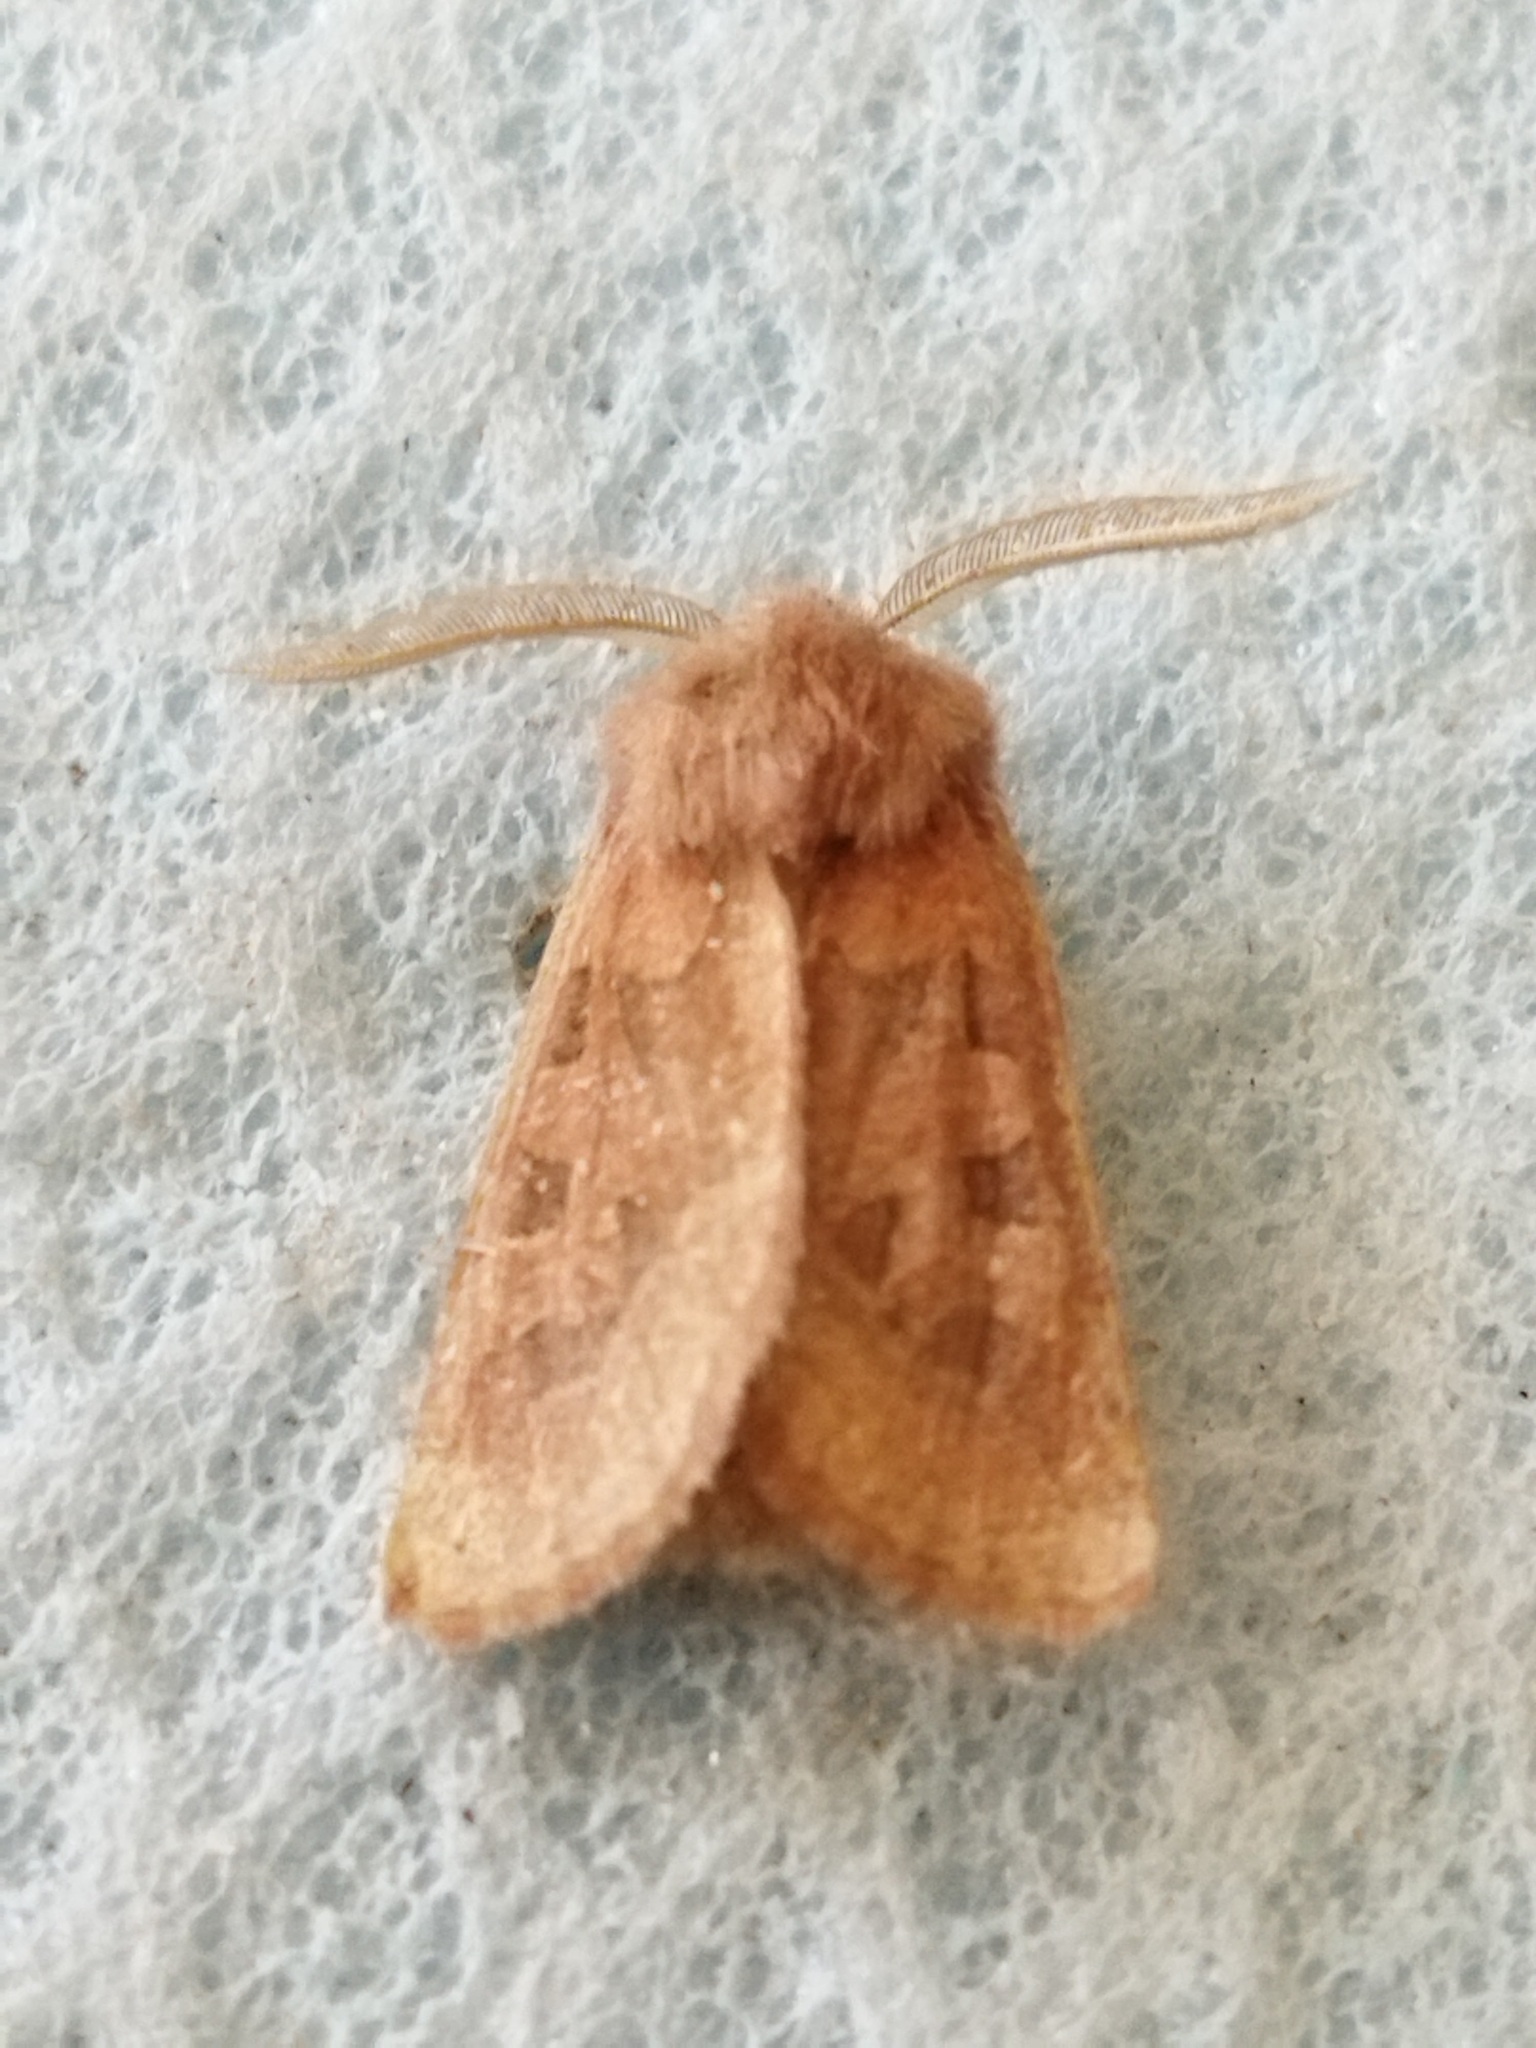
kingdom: Animalia
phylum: Arthropoda
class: Insecta
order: Lepidoptera
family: Noctuidae
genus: Episema
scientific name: Episema glaucina
